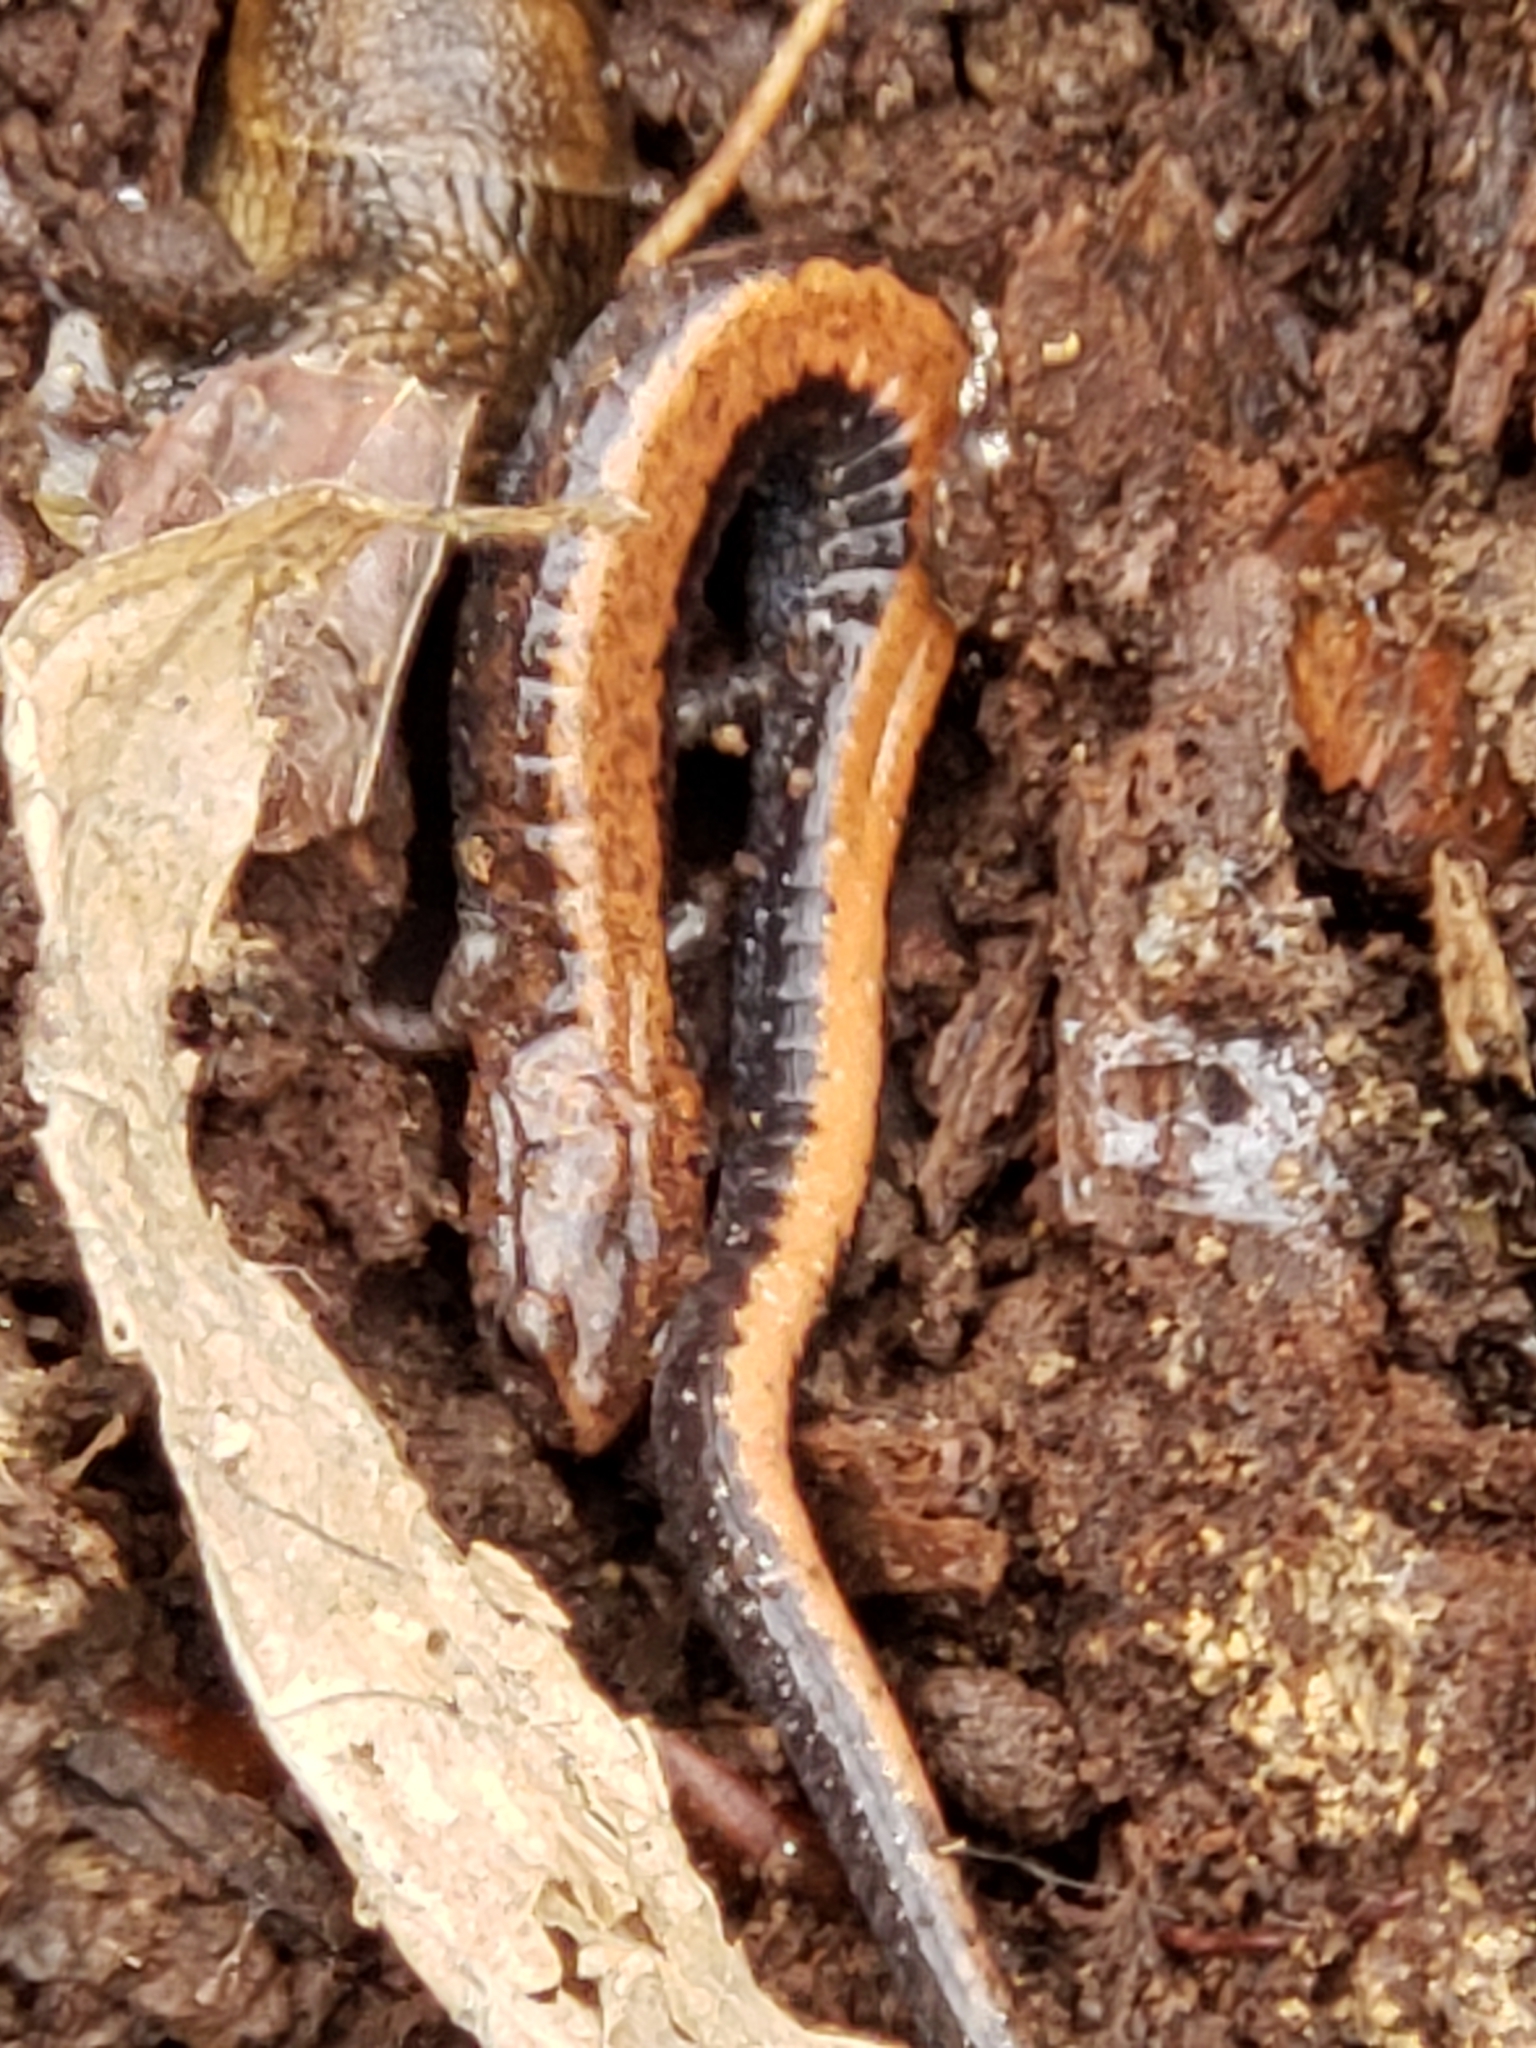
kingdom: Animalia
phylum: Chordata
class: Amphibia
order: Caudata
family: Plethodontidae
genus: Plethodon
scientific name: Plethodon cinereus
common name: Redback salamander
